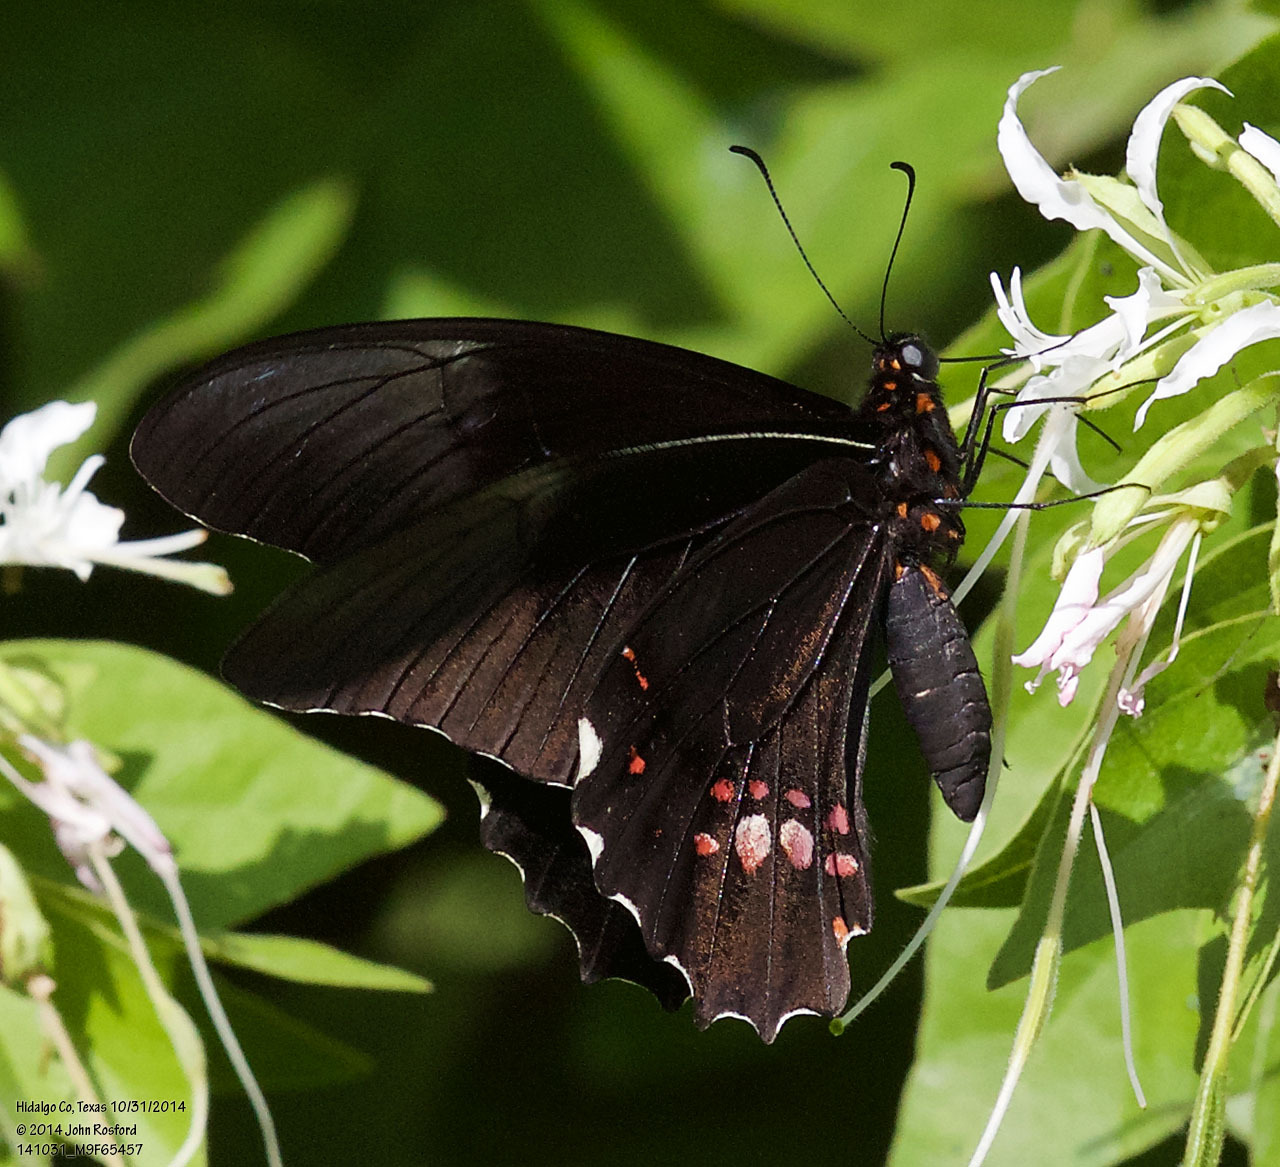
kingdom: Animalia
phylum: Arthropoda
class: Insecta
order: Lepidoptera
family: Papilionidae
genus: Papilio
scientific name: Papilio anchisiades
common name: Idaes swallowtail
